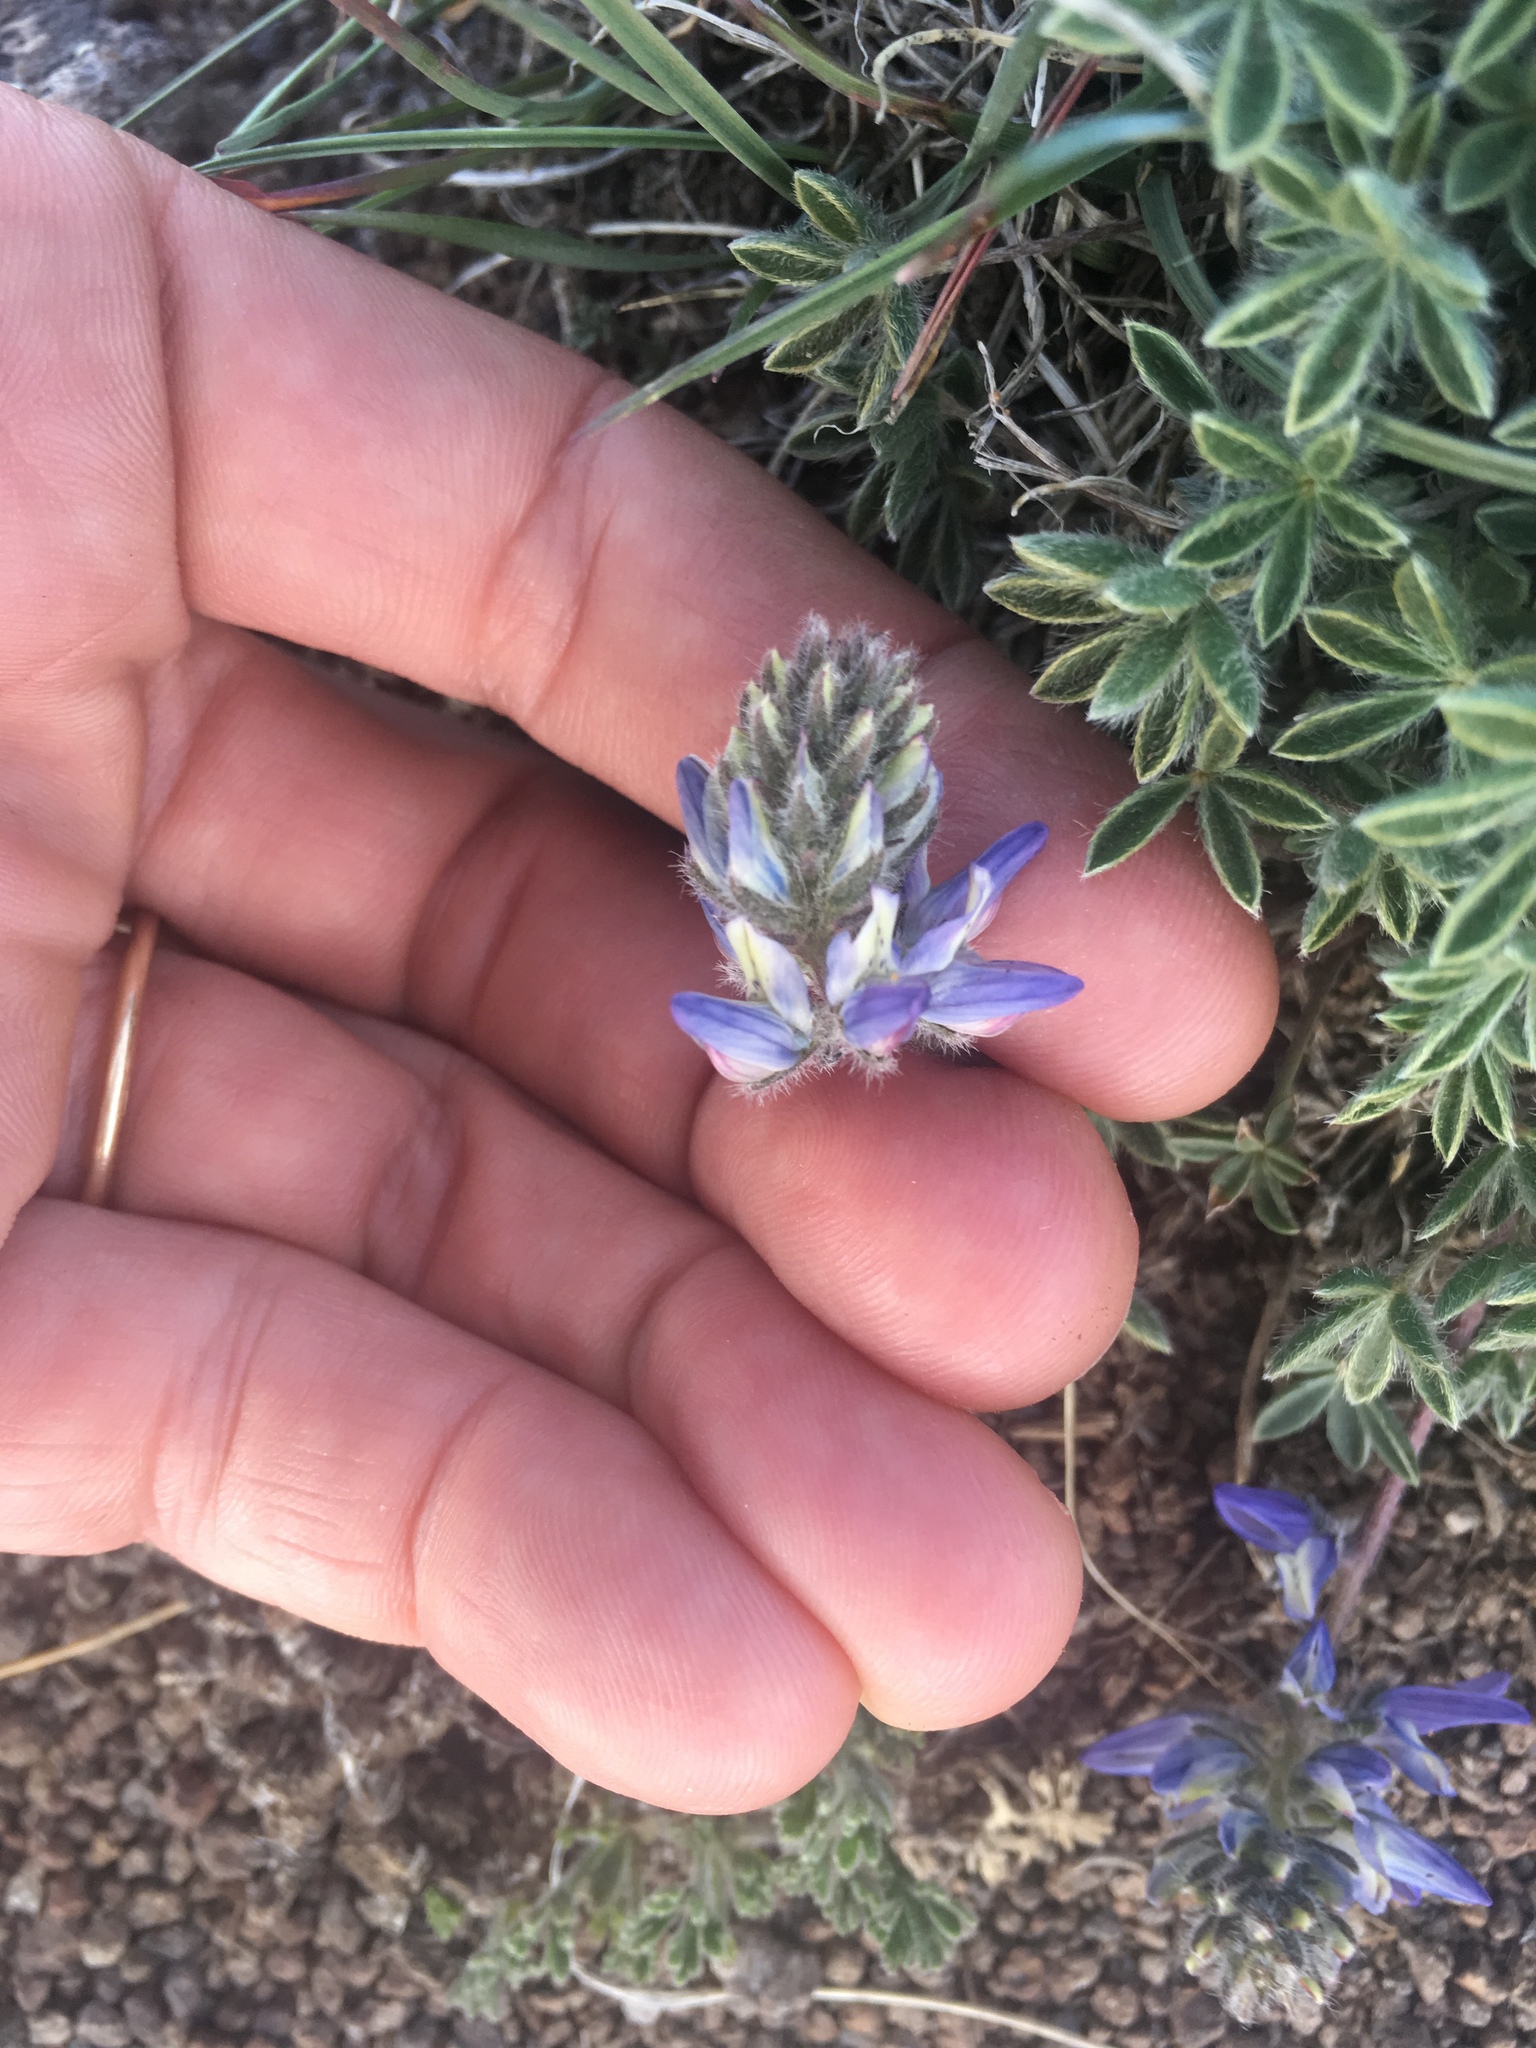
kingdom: Plantae
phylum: Tracheophyta
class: Magnoliopsida
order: Fabales
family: Fabaceae
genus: Lupinus
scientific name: Lupinus lepidus
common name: Prairie lupine
